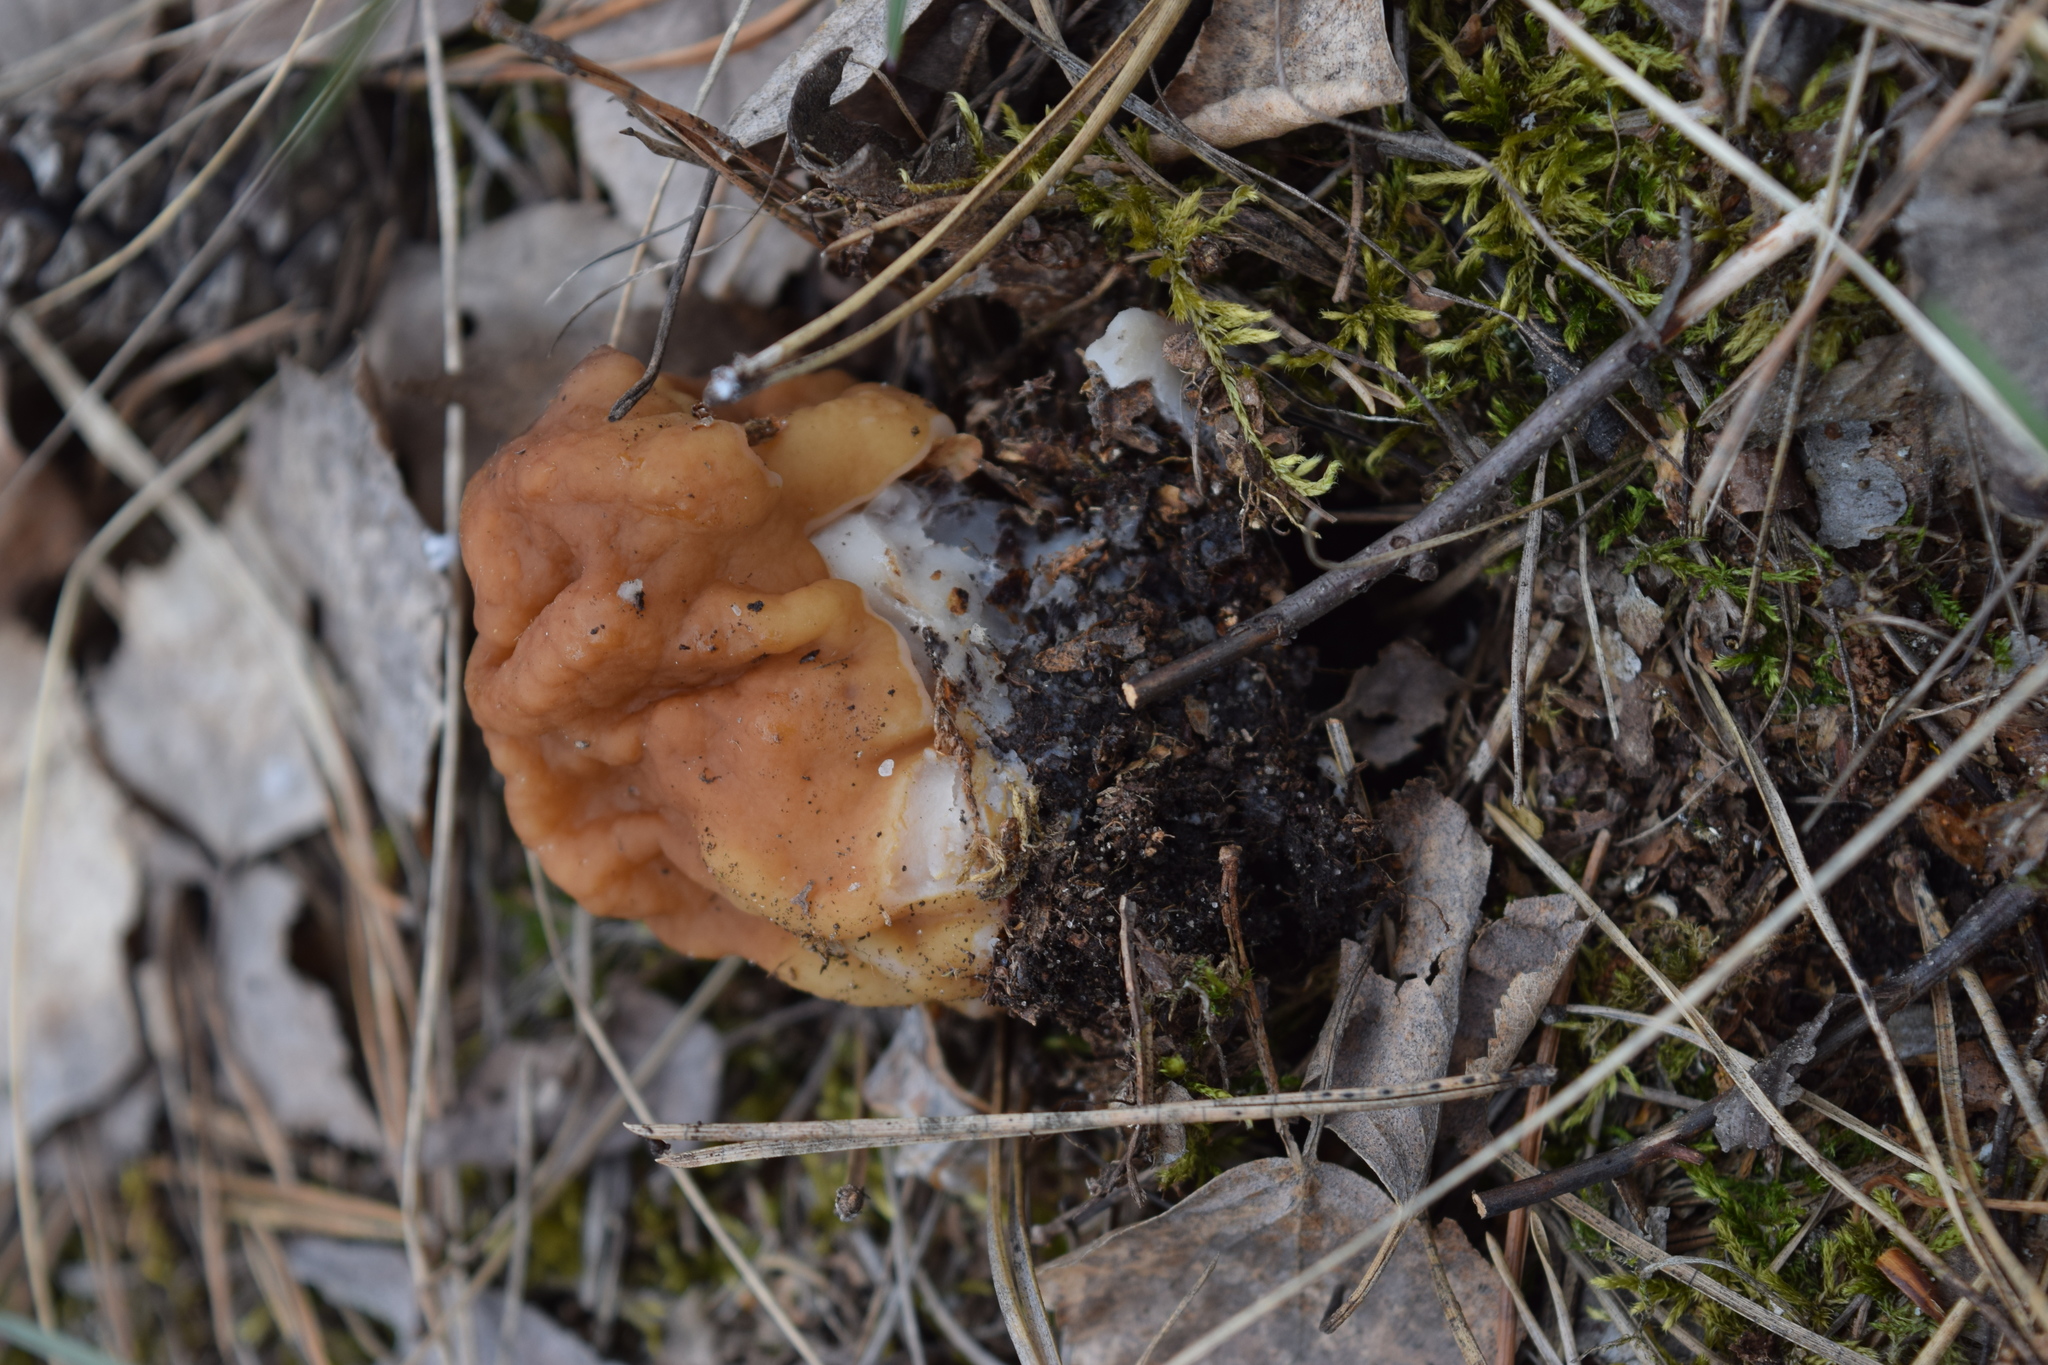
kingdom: Fungi
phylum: Ascomycota
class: Pezizomycetes
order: Pezizales
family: Discinaceae
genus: Gyromitra
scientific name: Gyromitra gigas
